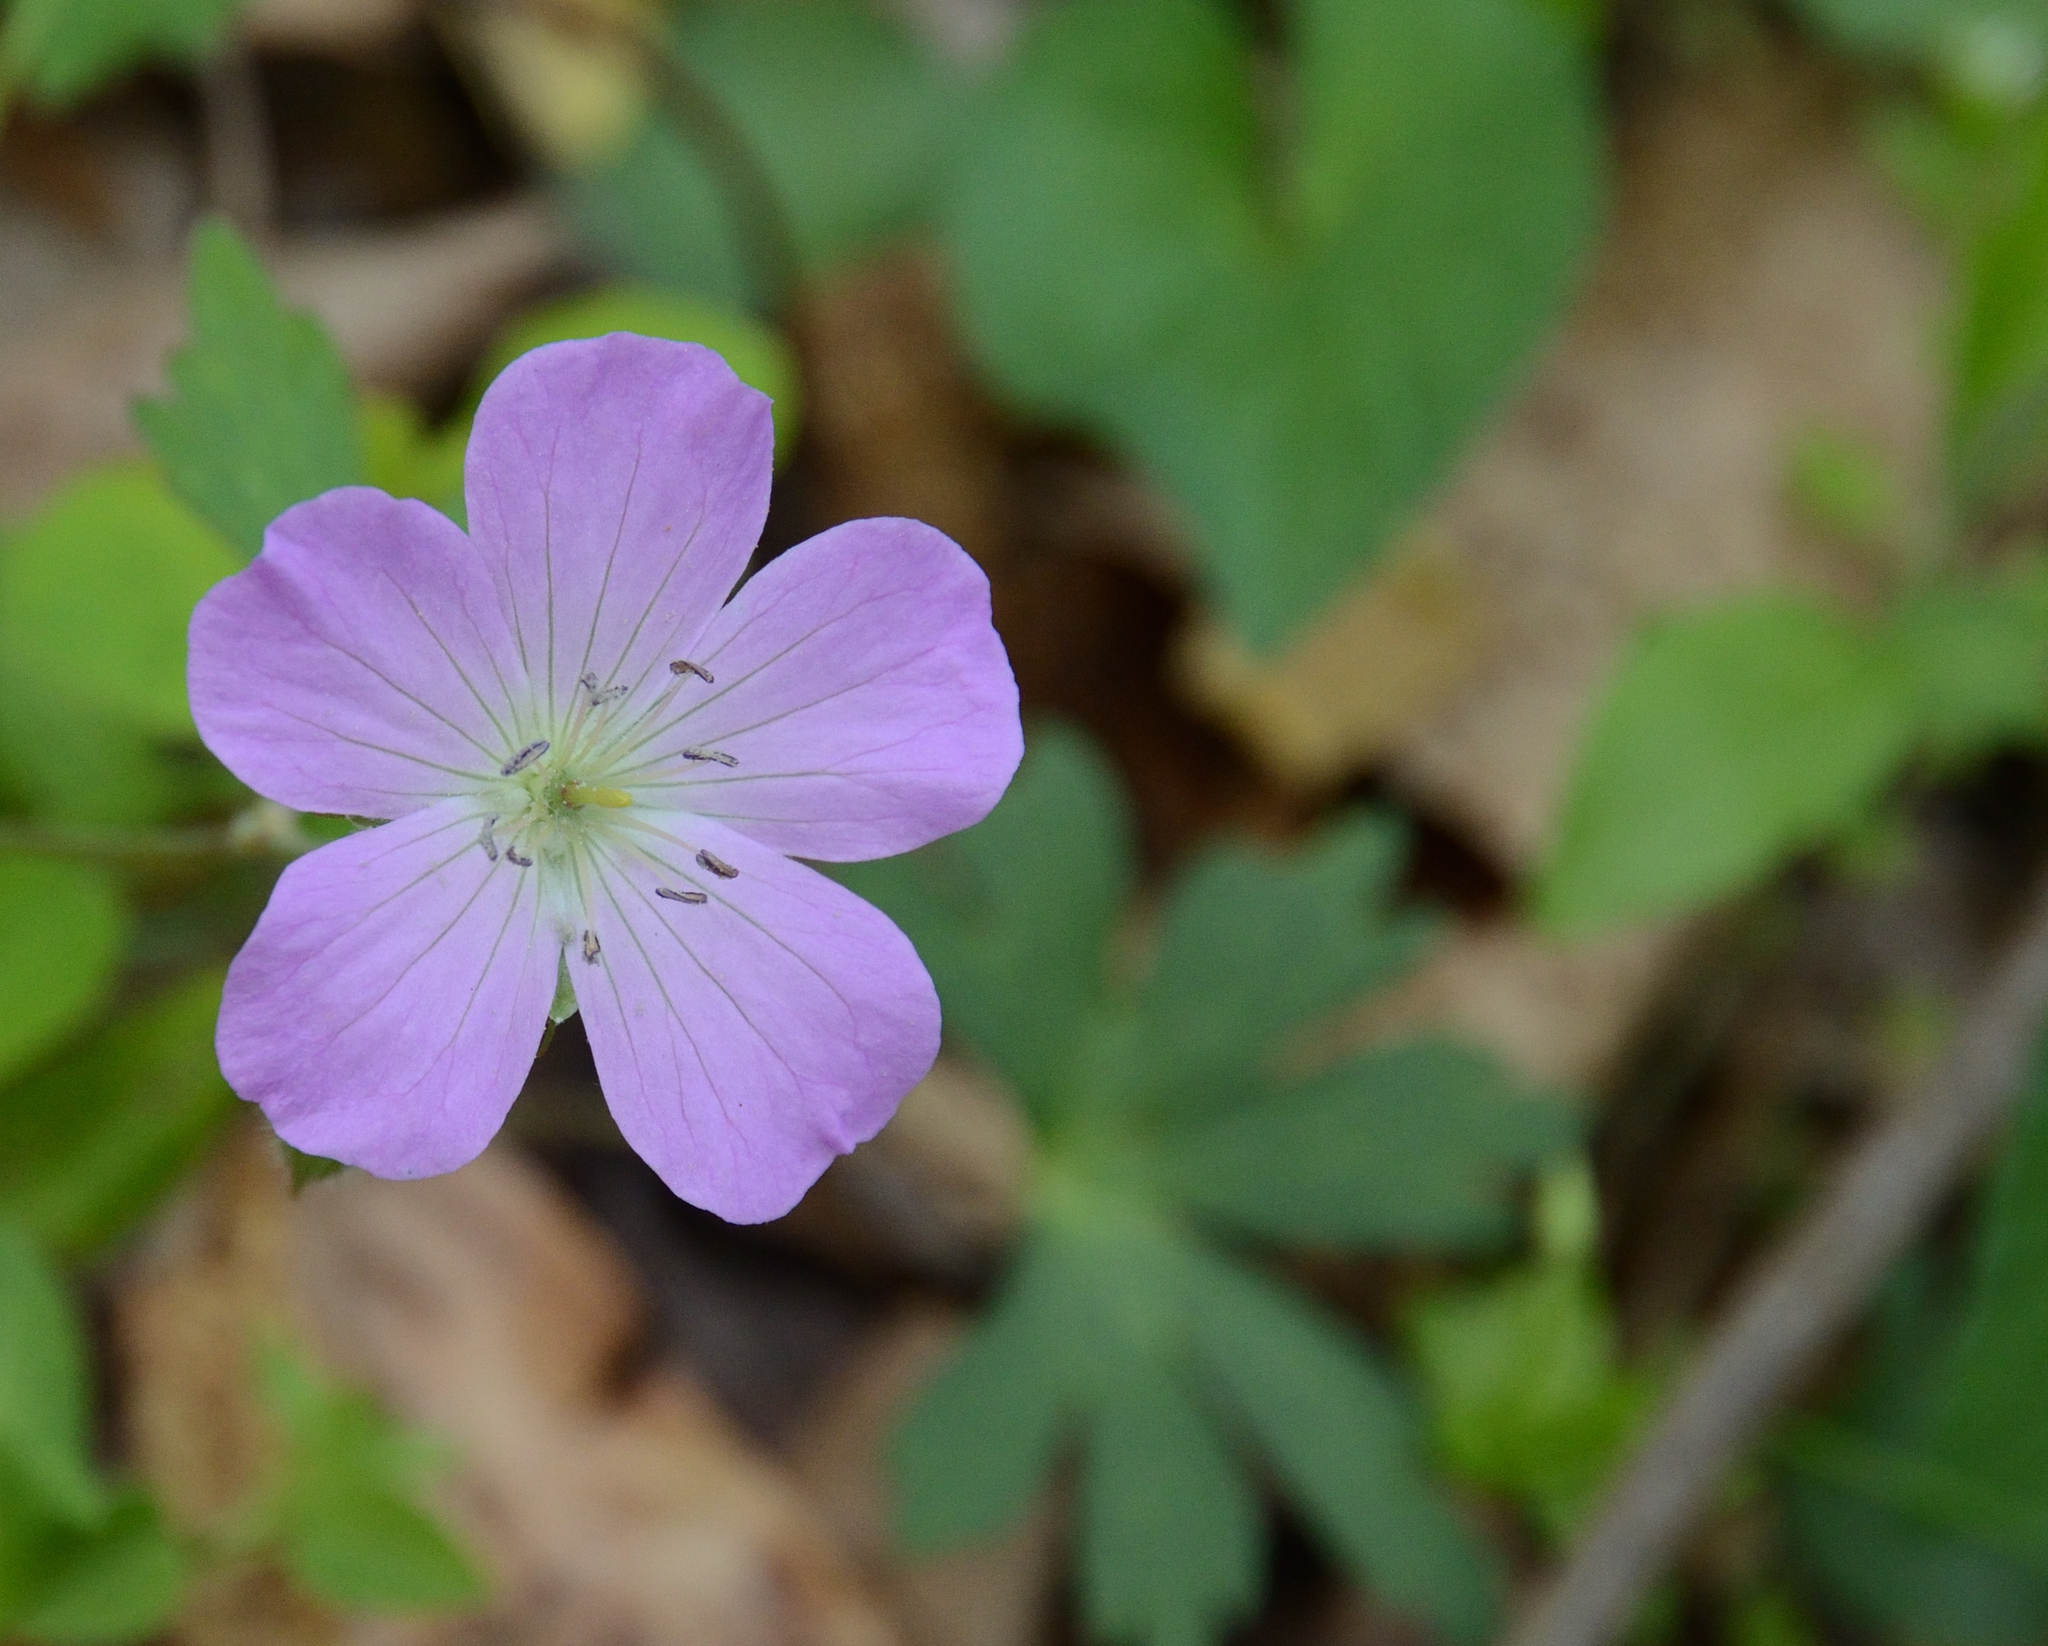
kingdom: Plantae
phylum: Tracheophyta
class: Magnoliopsida
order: Geraniales
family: Geraniaceae
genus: Geranium
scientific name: Geranium maculatum
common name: Spotted geranium
